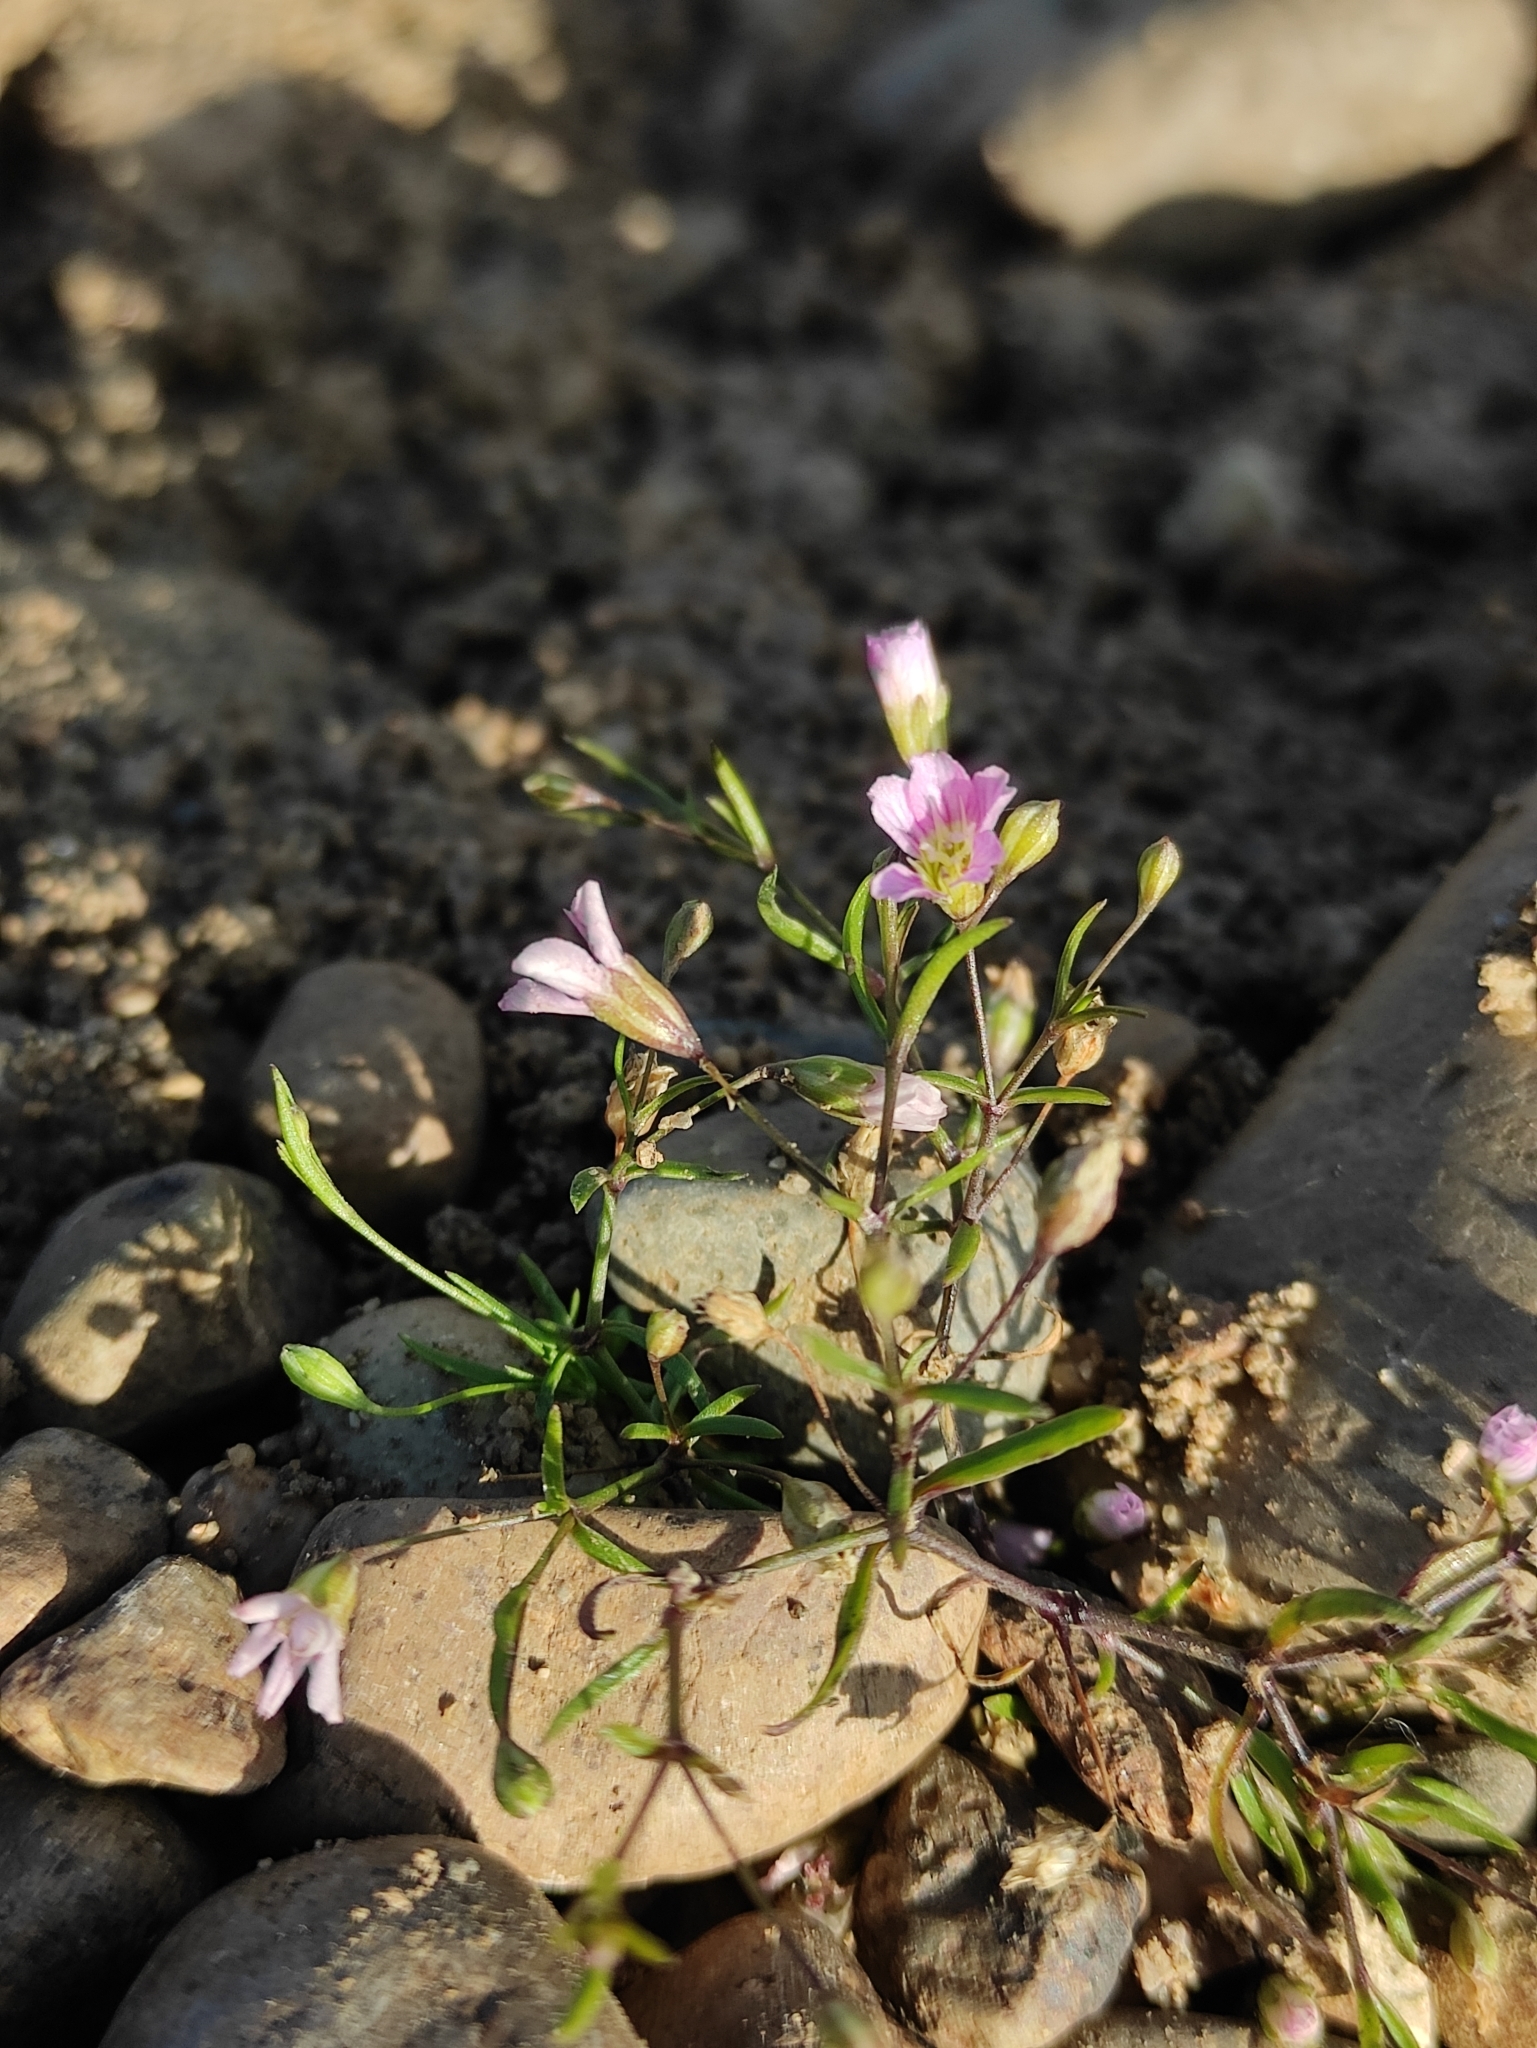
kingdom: Plantae
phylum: Tracheophyta
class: Magnoliopsida
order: Caryophyllales
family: Caryophyllaceae
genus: Psammophiliella
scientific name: Psammophiliella muralis
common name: Cushion baby's-breath
